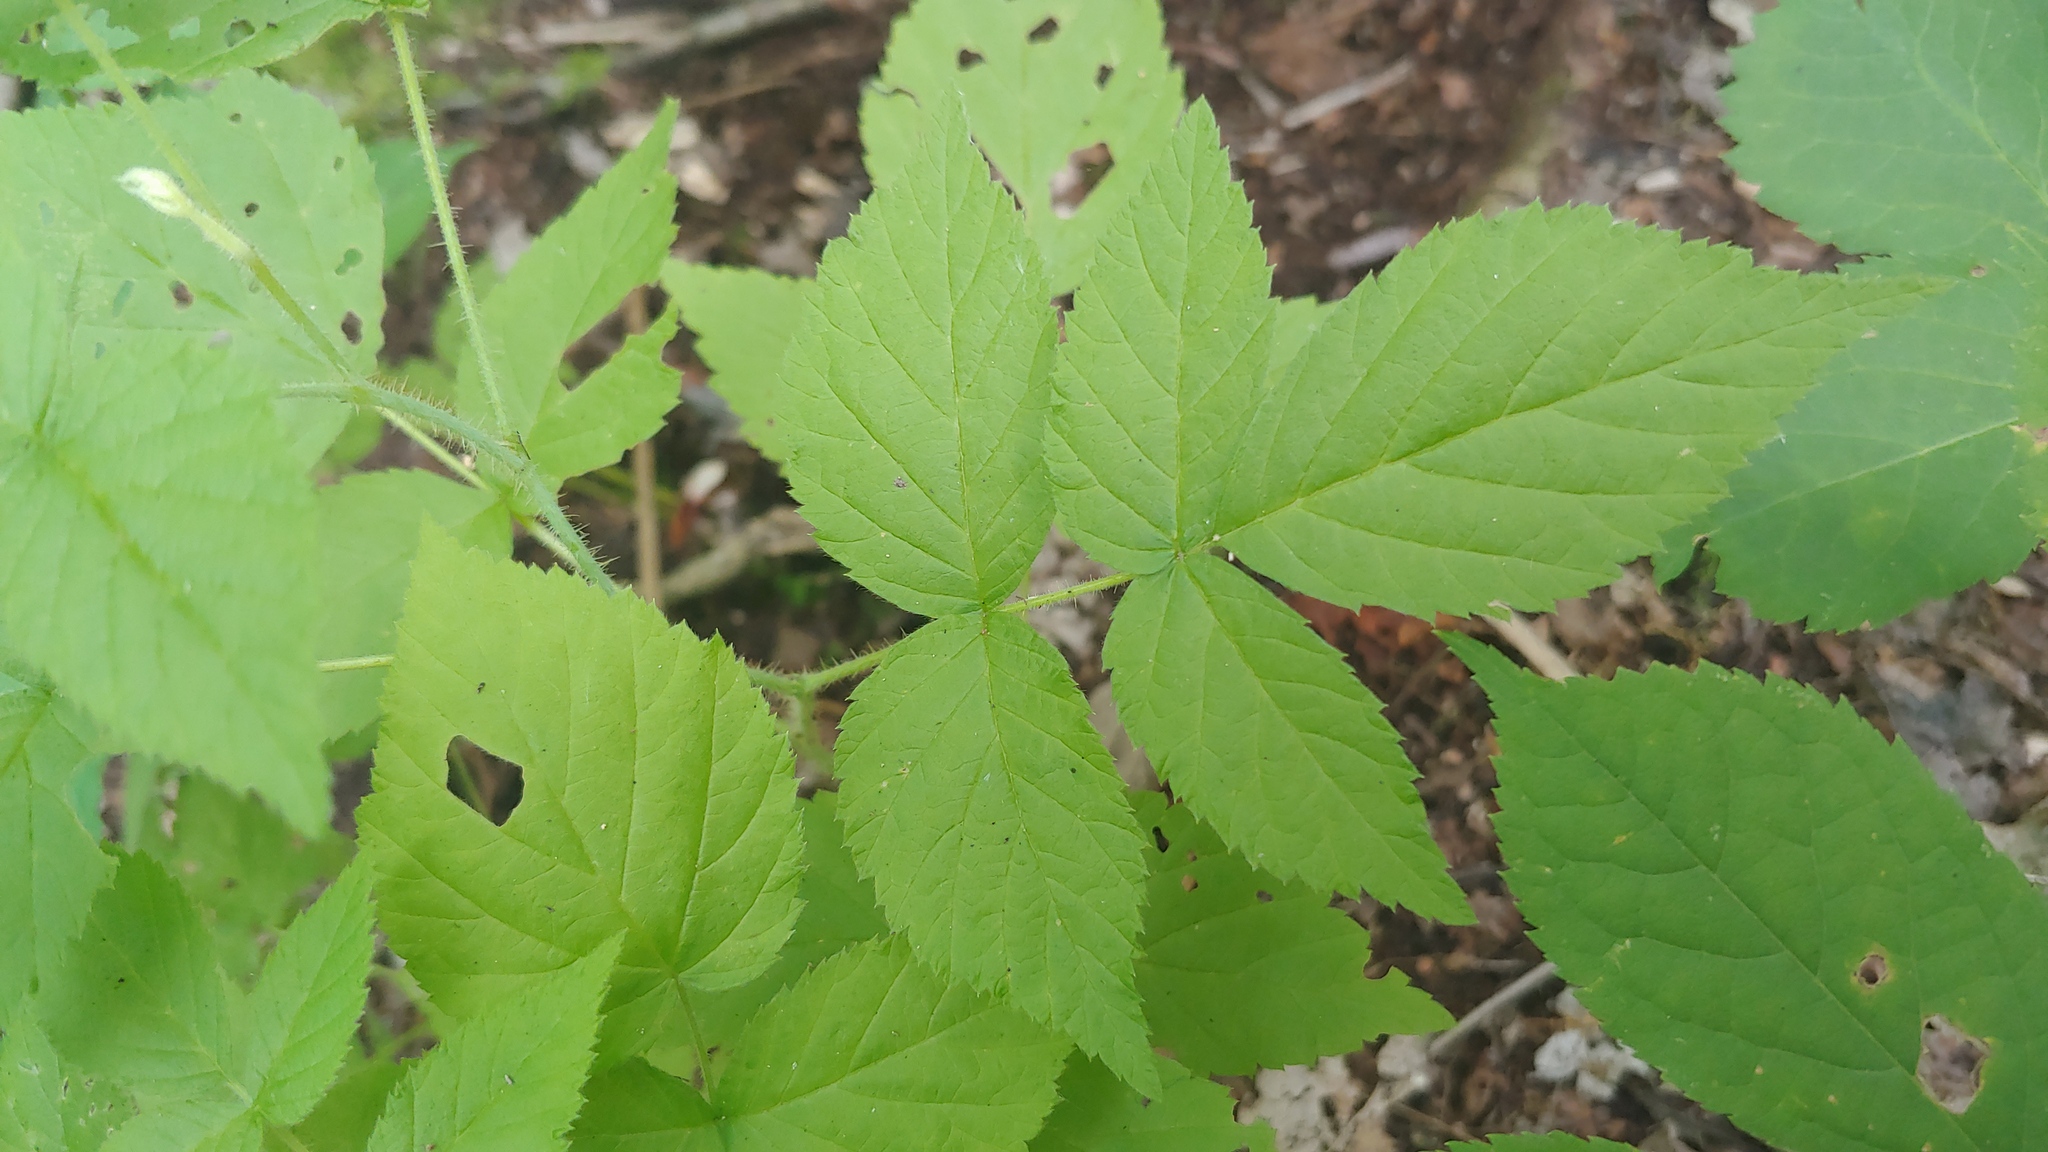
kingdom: Plantae
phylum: Tracheophyta
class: Magnoliopsida
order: Rosales
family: Rosaceae
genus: Rubus
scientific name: Rubus idaeus
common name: Raspberry
